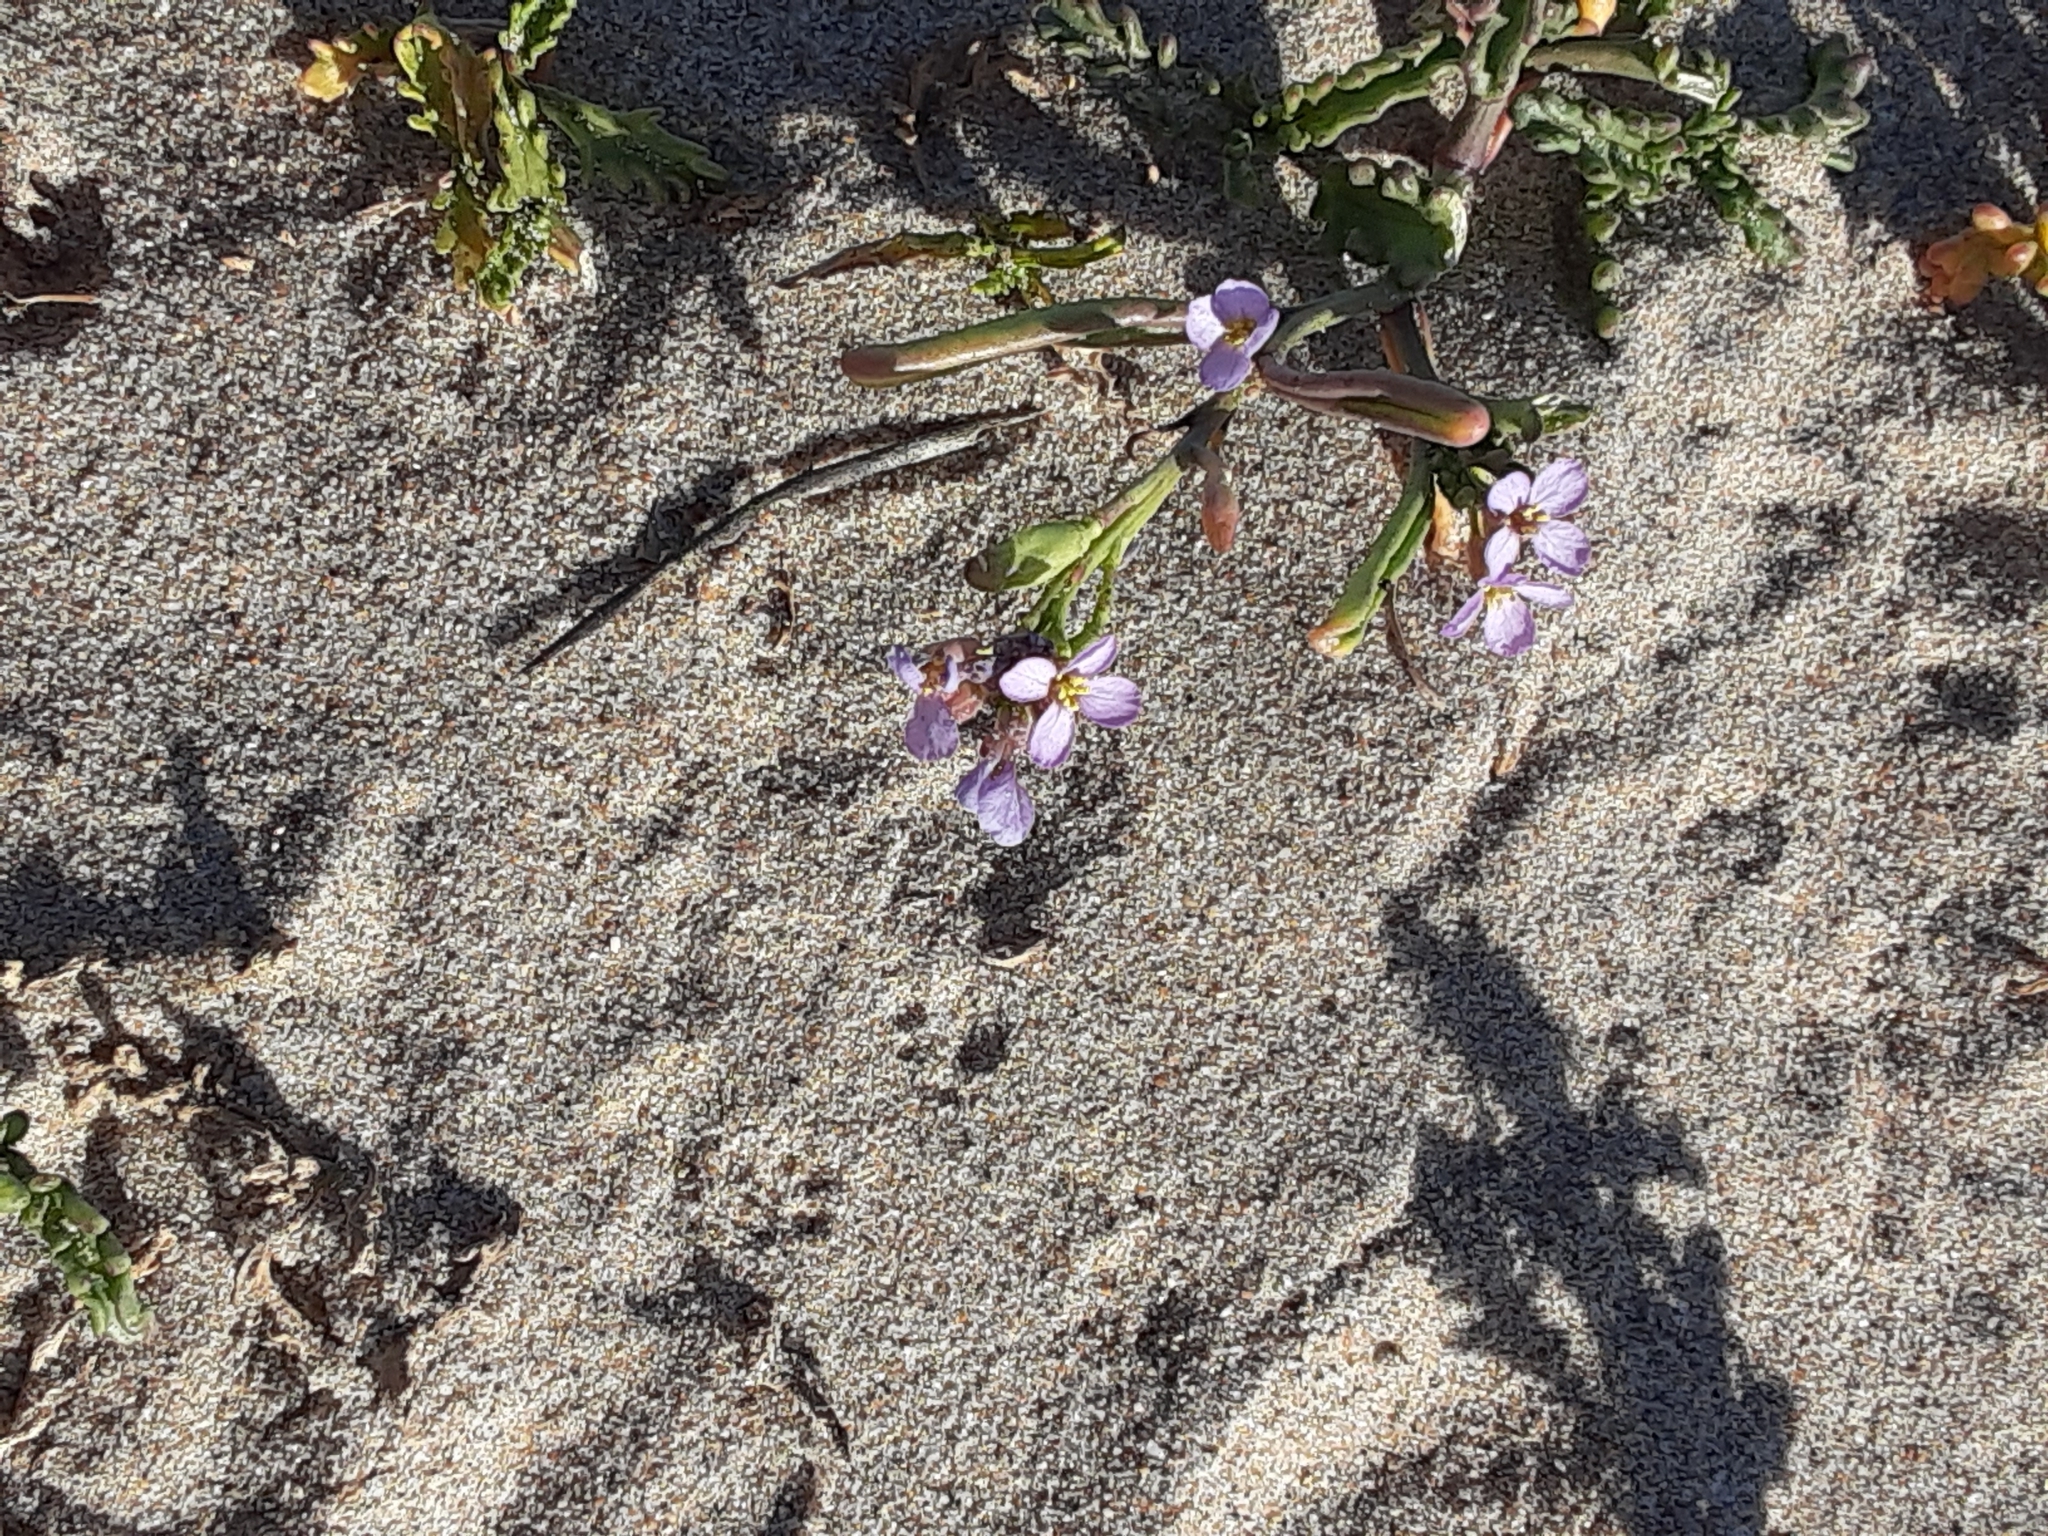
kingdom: Plantae
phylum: Tracheophyta
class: Magnoliopsida
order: Brassicales
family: Brassicaceae
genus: Cakile
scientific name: Cakile maritima
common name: Sea rocket
